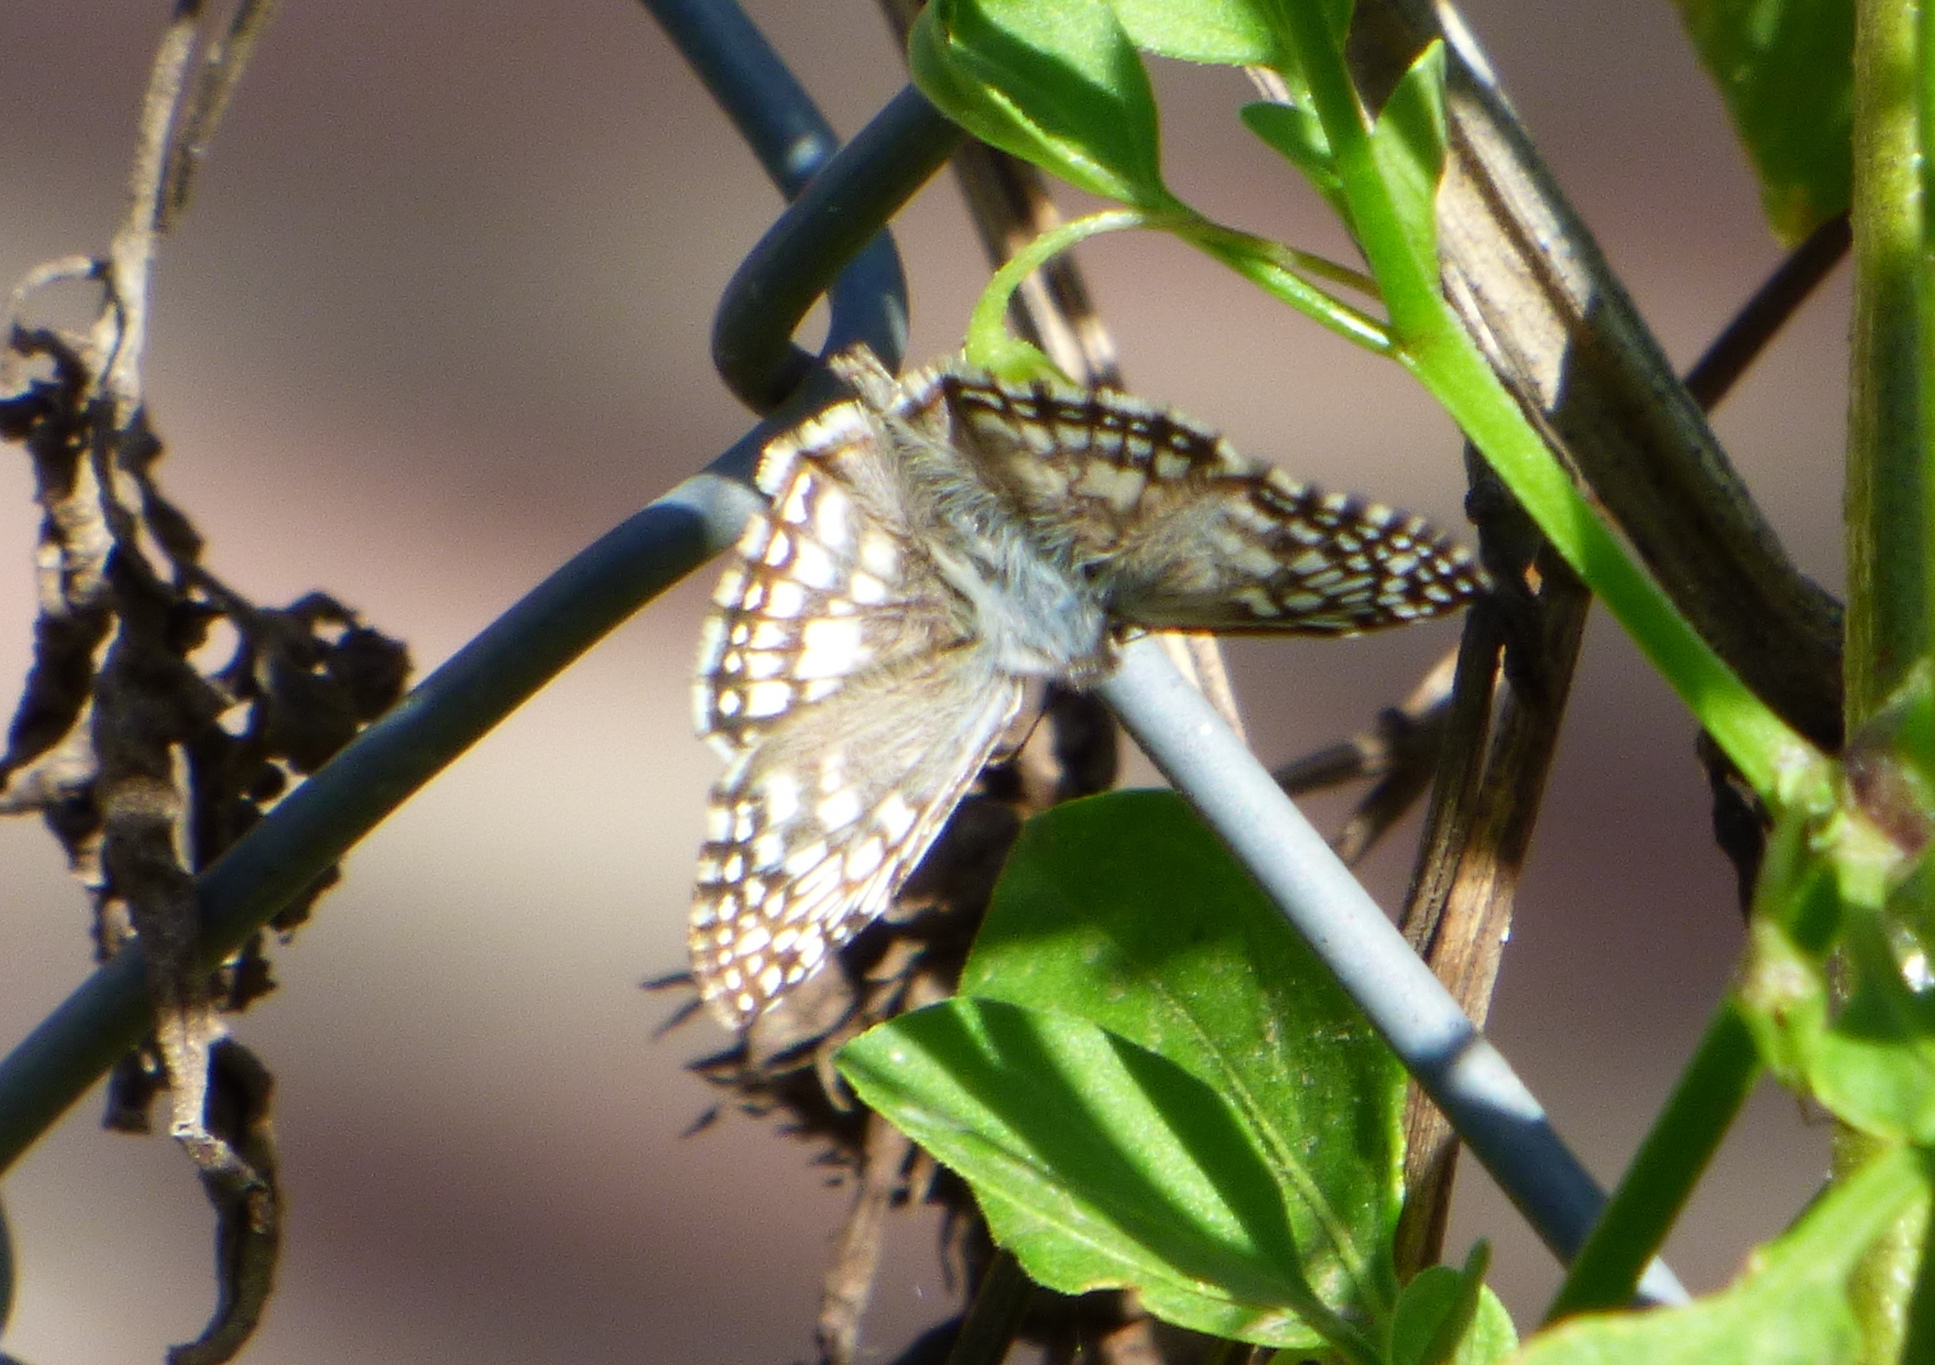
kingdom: Animalia
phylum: Arthropoda
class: Insecta
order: Lepidoptera
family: Hesperiidae
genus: Pyrgus
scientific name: Pyrgus oileus
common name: Tropical checkered-skipper
